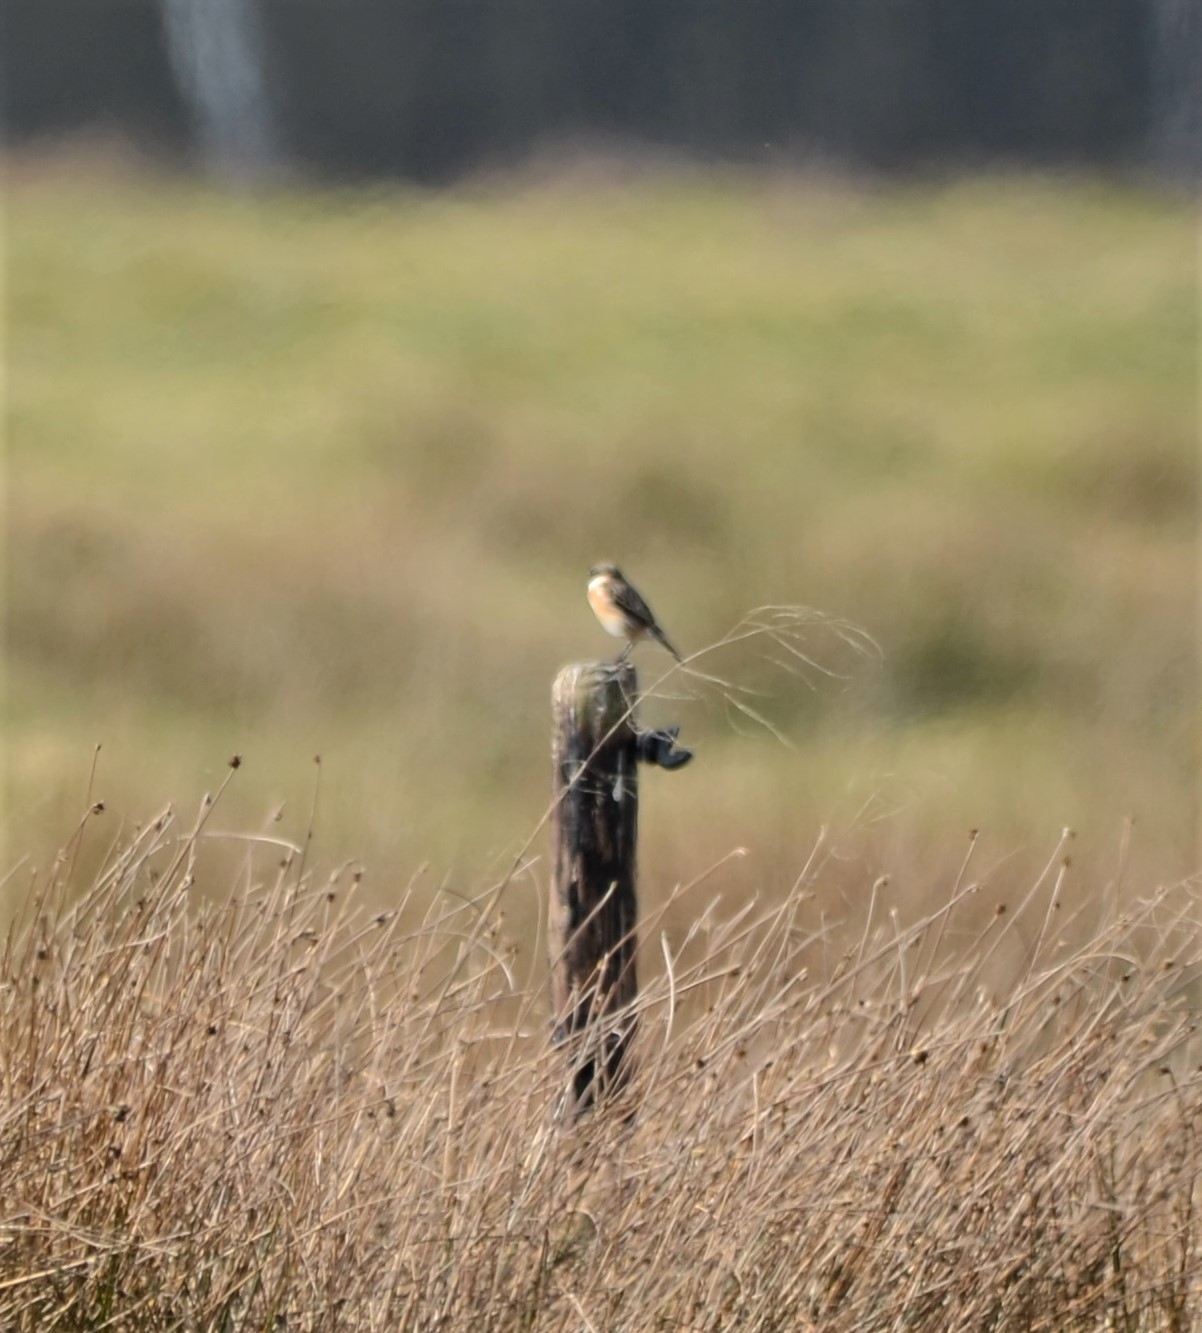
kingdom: Animalia
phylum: Chordata
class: Aves
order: Passeriformes
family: Muscicapidae
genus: Saxicola
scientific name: Saxicola rubicola
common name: European stonechat
